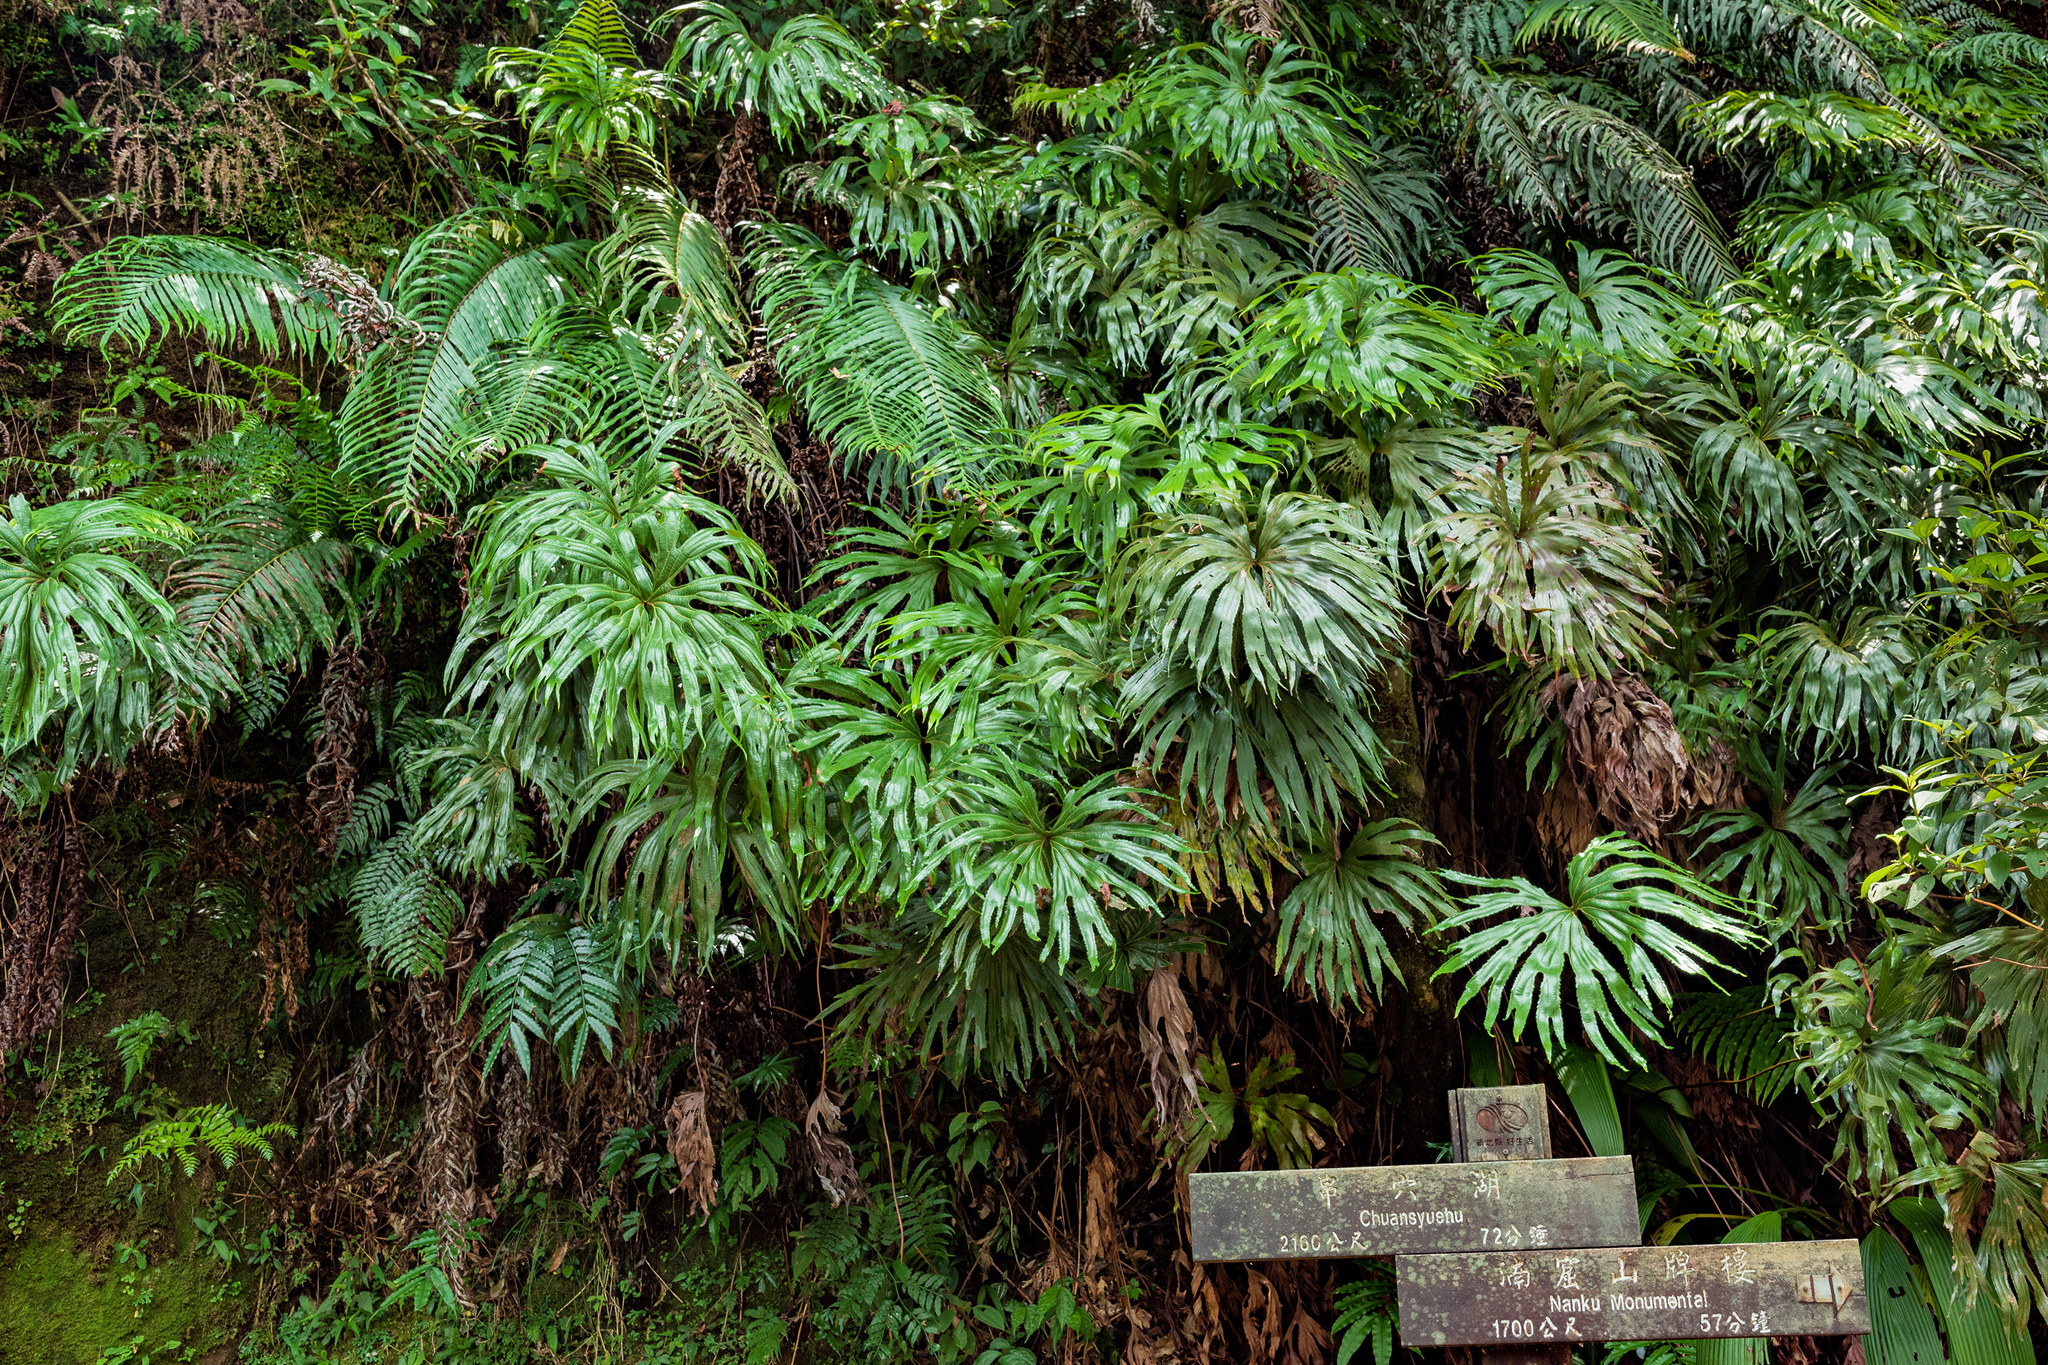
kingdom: Plantae
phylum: Tracheophyta
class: Polypodiopsida
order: Gleicheniales
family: Dipteridaceae
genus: Dipteris
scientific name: Dipteris conjugata
